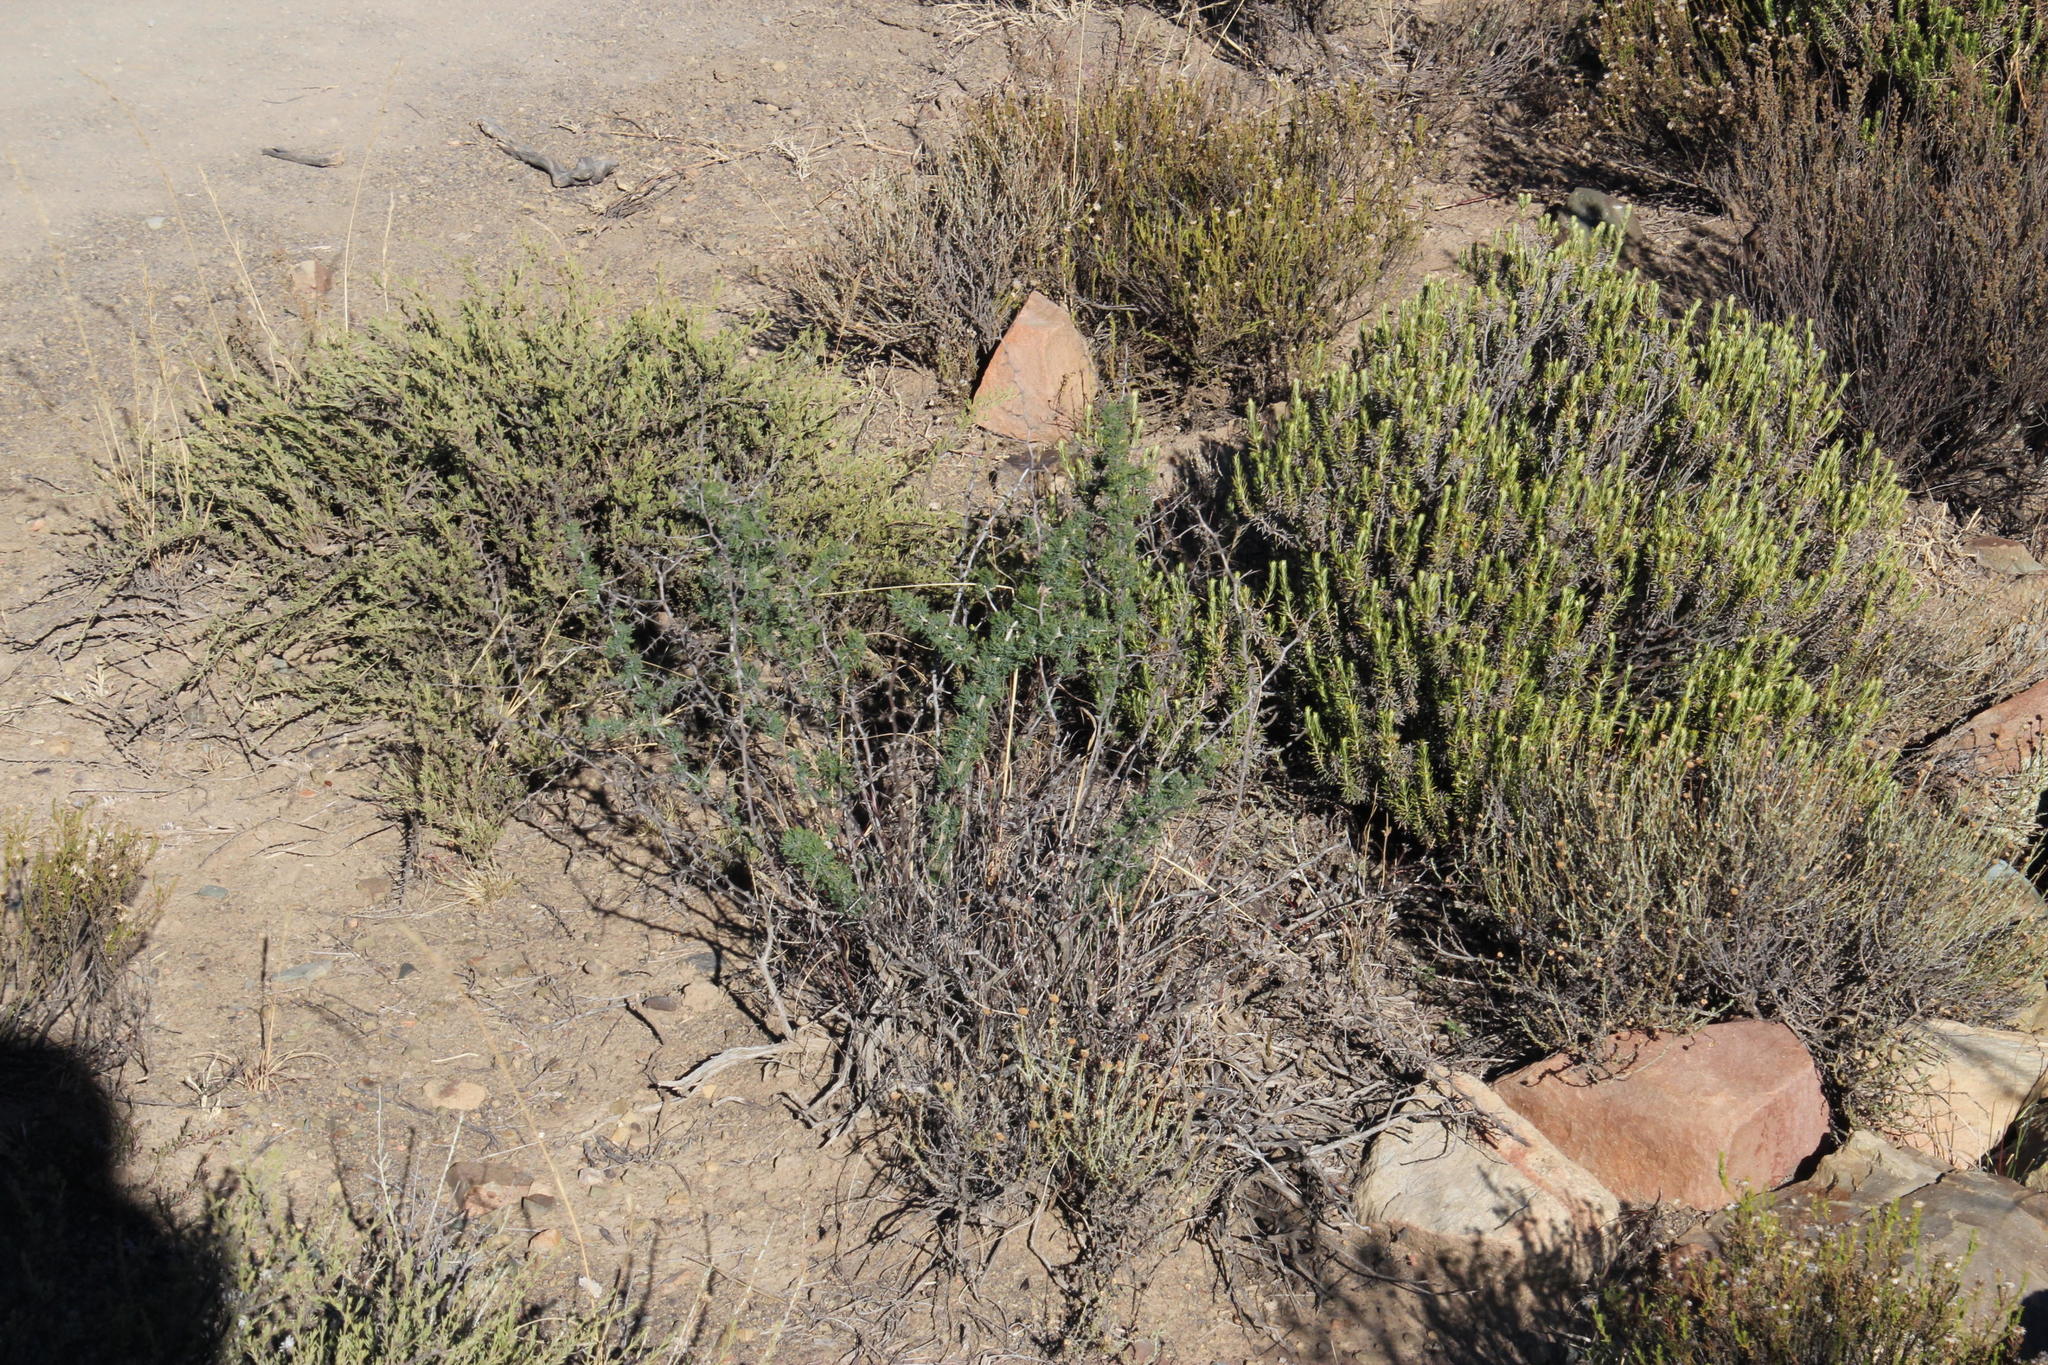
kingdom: Plantae
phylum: Tracheophyta
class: Liliopsida
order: Asparagales
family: Asparagaceae
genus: Asparagus
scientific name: Asparagus suaveolens
